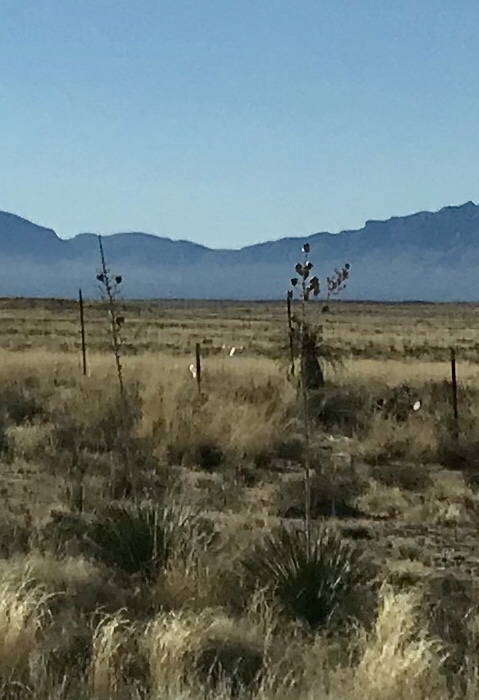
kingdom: Plantae
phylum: Tracheophyta
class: Liliopsida
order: Asparagales
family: Asparagaceae
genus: Yucca
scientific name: Yucca elata
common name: Palmella
